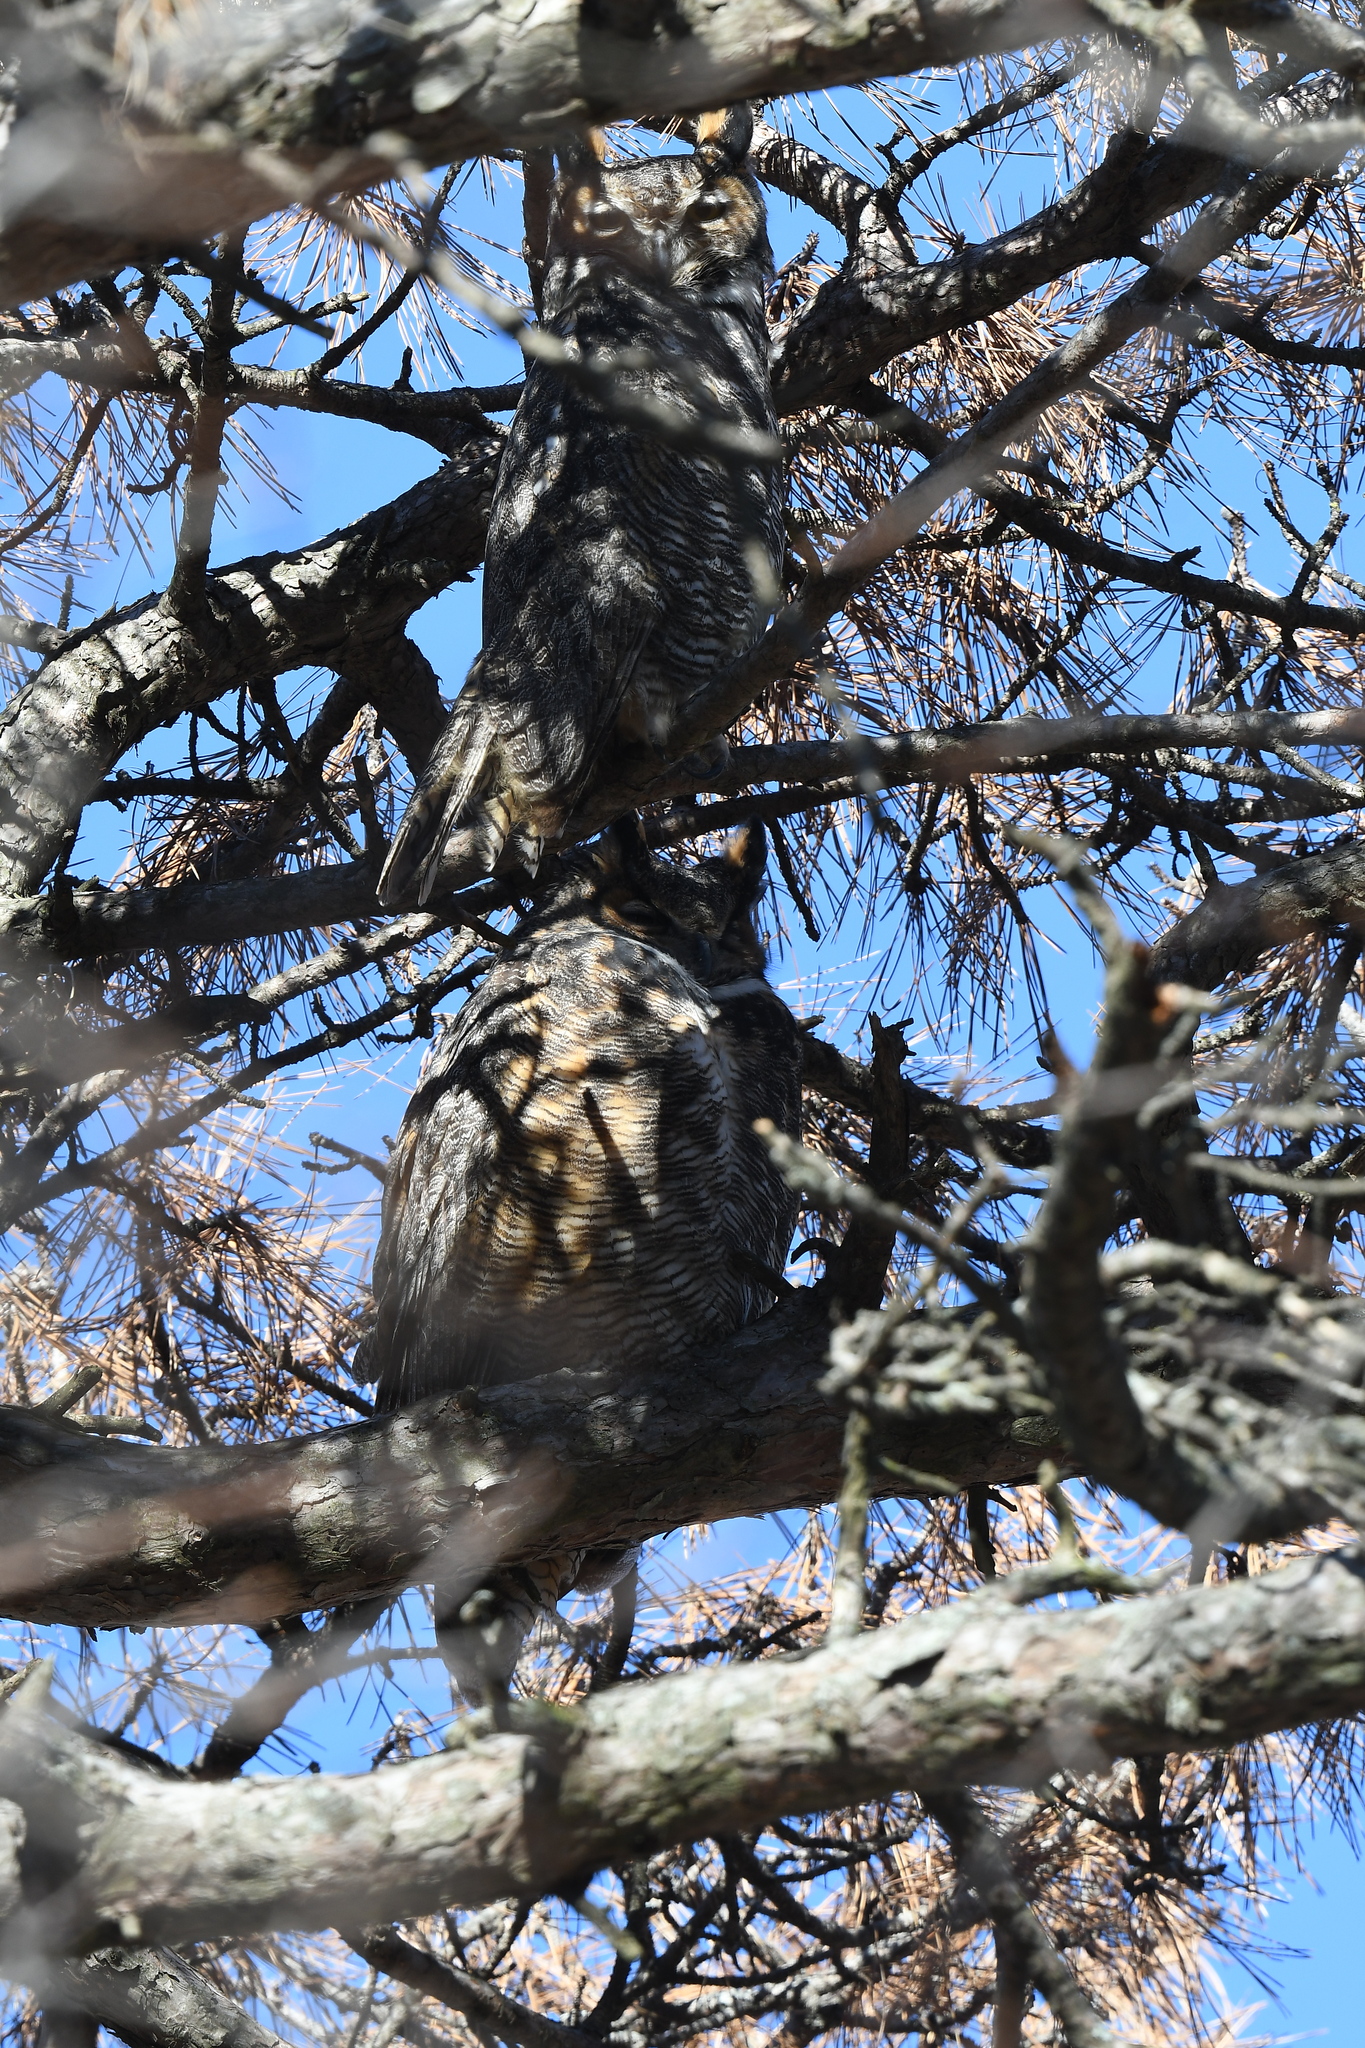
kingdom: Animalia
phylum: Chordata
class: Aves
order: Strigiformes
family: Strigidae
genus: Bubo
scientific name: Bubo virginianus
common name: Great horned owl
